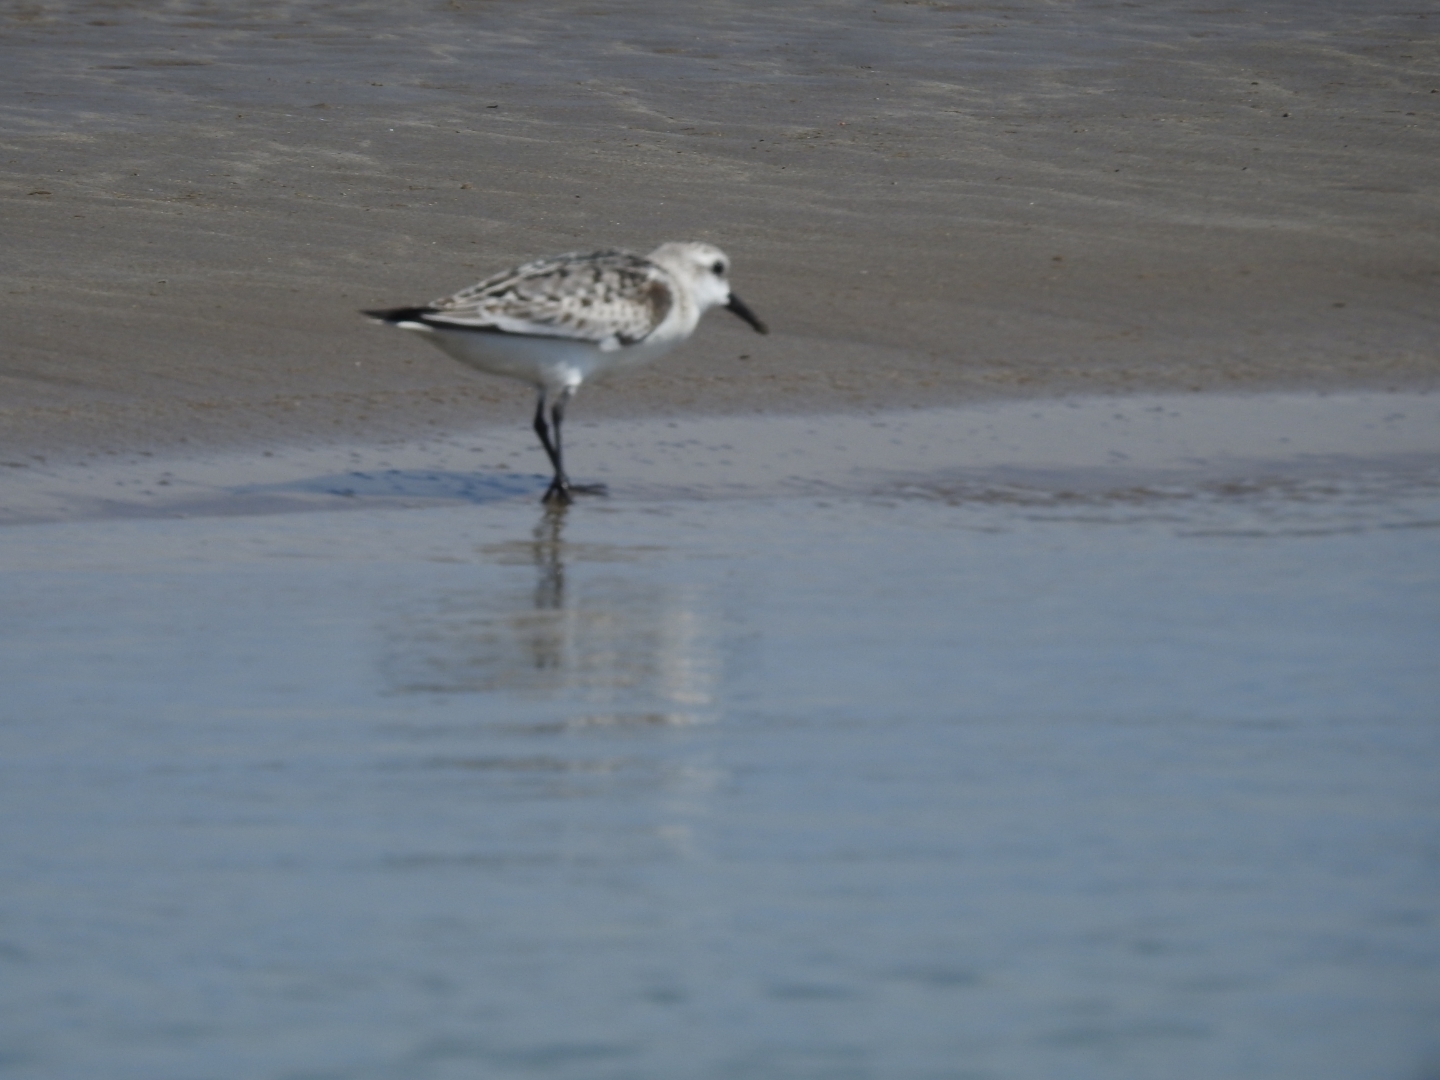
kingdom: Animalia
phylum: Chordata
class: Aves
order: Charadriiformes
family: Scolopacidae
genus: Calidris
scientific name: Calidris alba
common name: Sanderling
